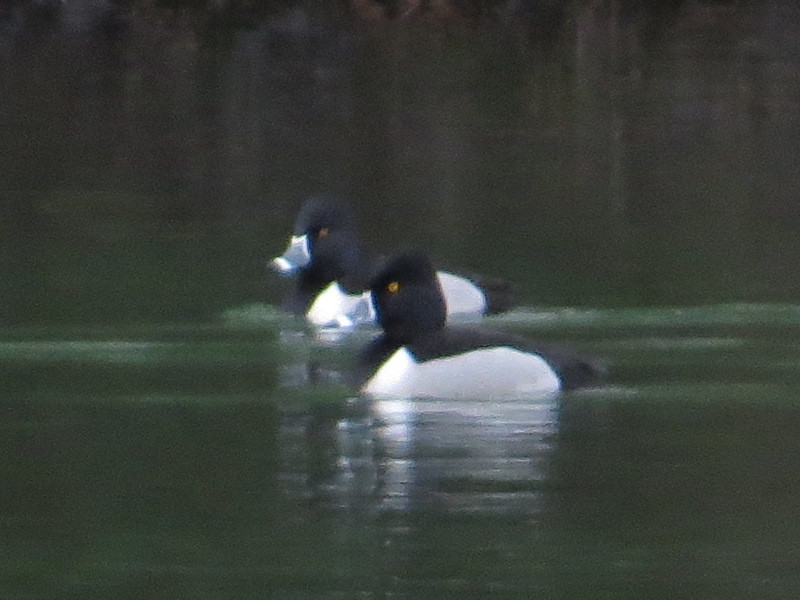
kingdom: Animalia
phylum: Chordata
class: Aves
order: Anseriformes
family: Anatidae
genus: Aythya
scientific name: Aythya collaris
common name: Ring-necked duck
